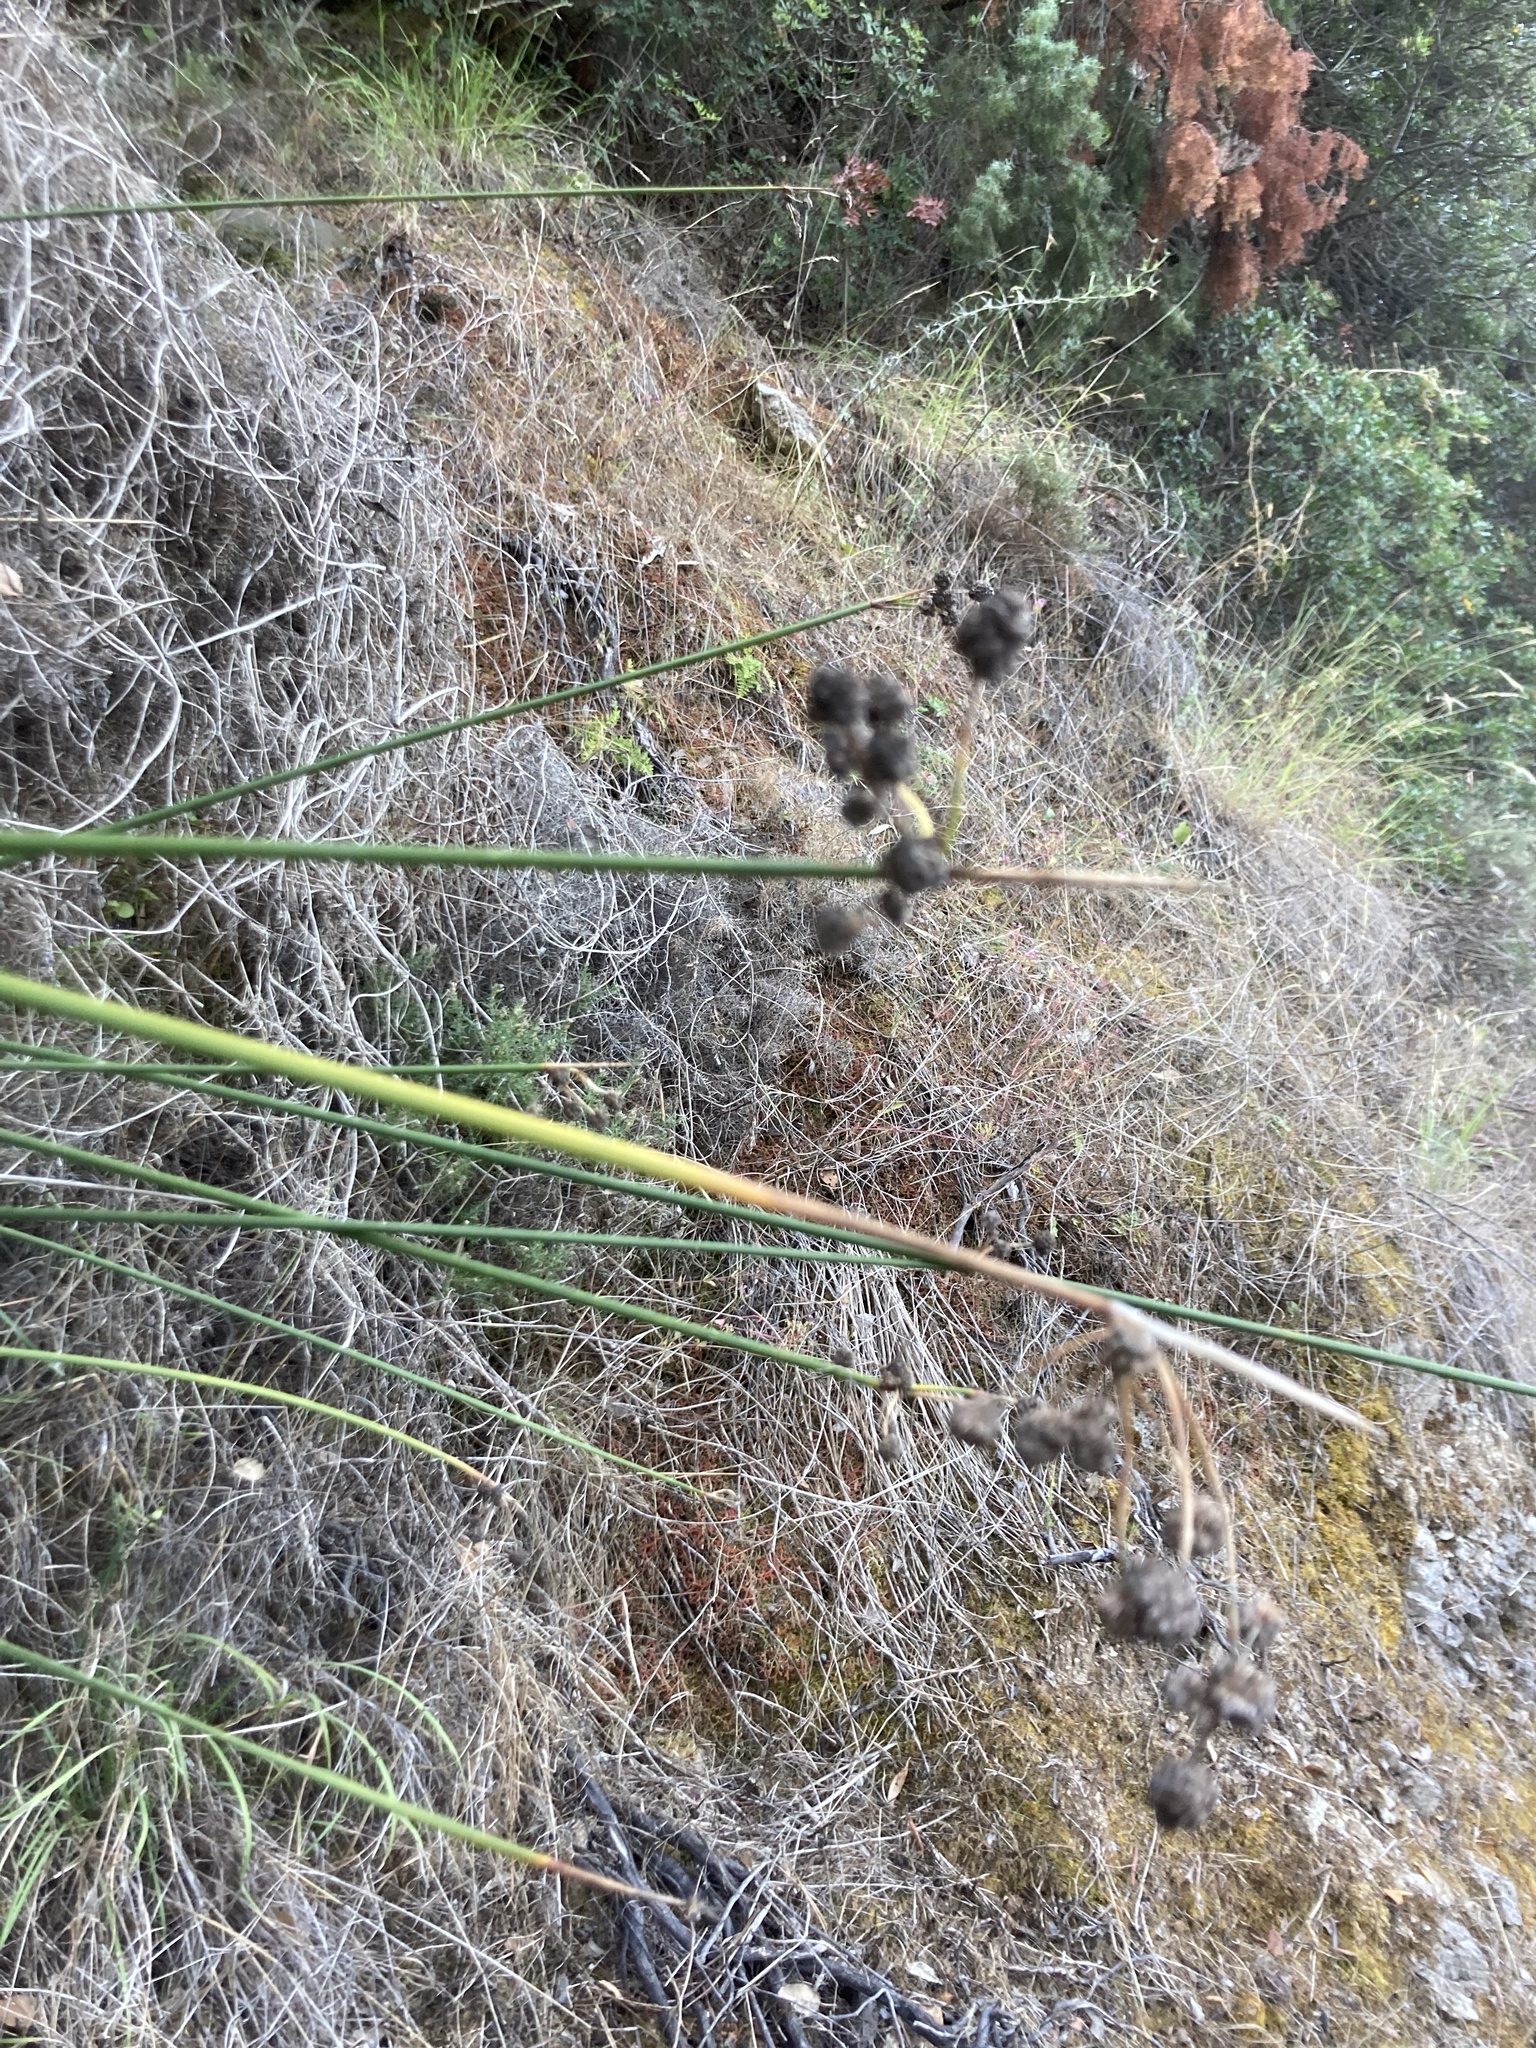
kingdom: Plantae
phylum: Tracheophyta
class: Liliopsida
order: Poales
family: Cyperaceae
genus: Scirpoides
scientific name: Scirpoides holoschoenus
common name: Round-headed club-rush
